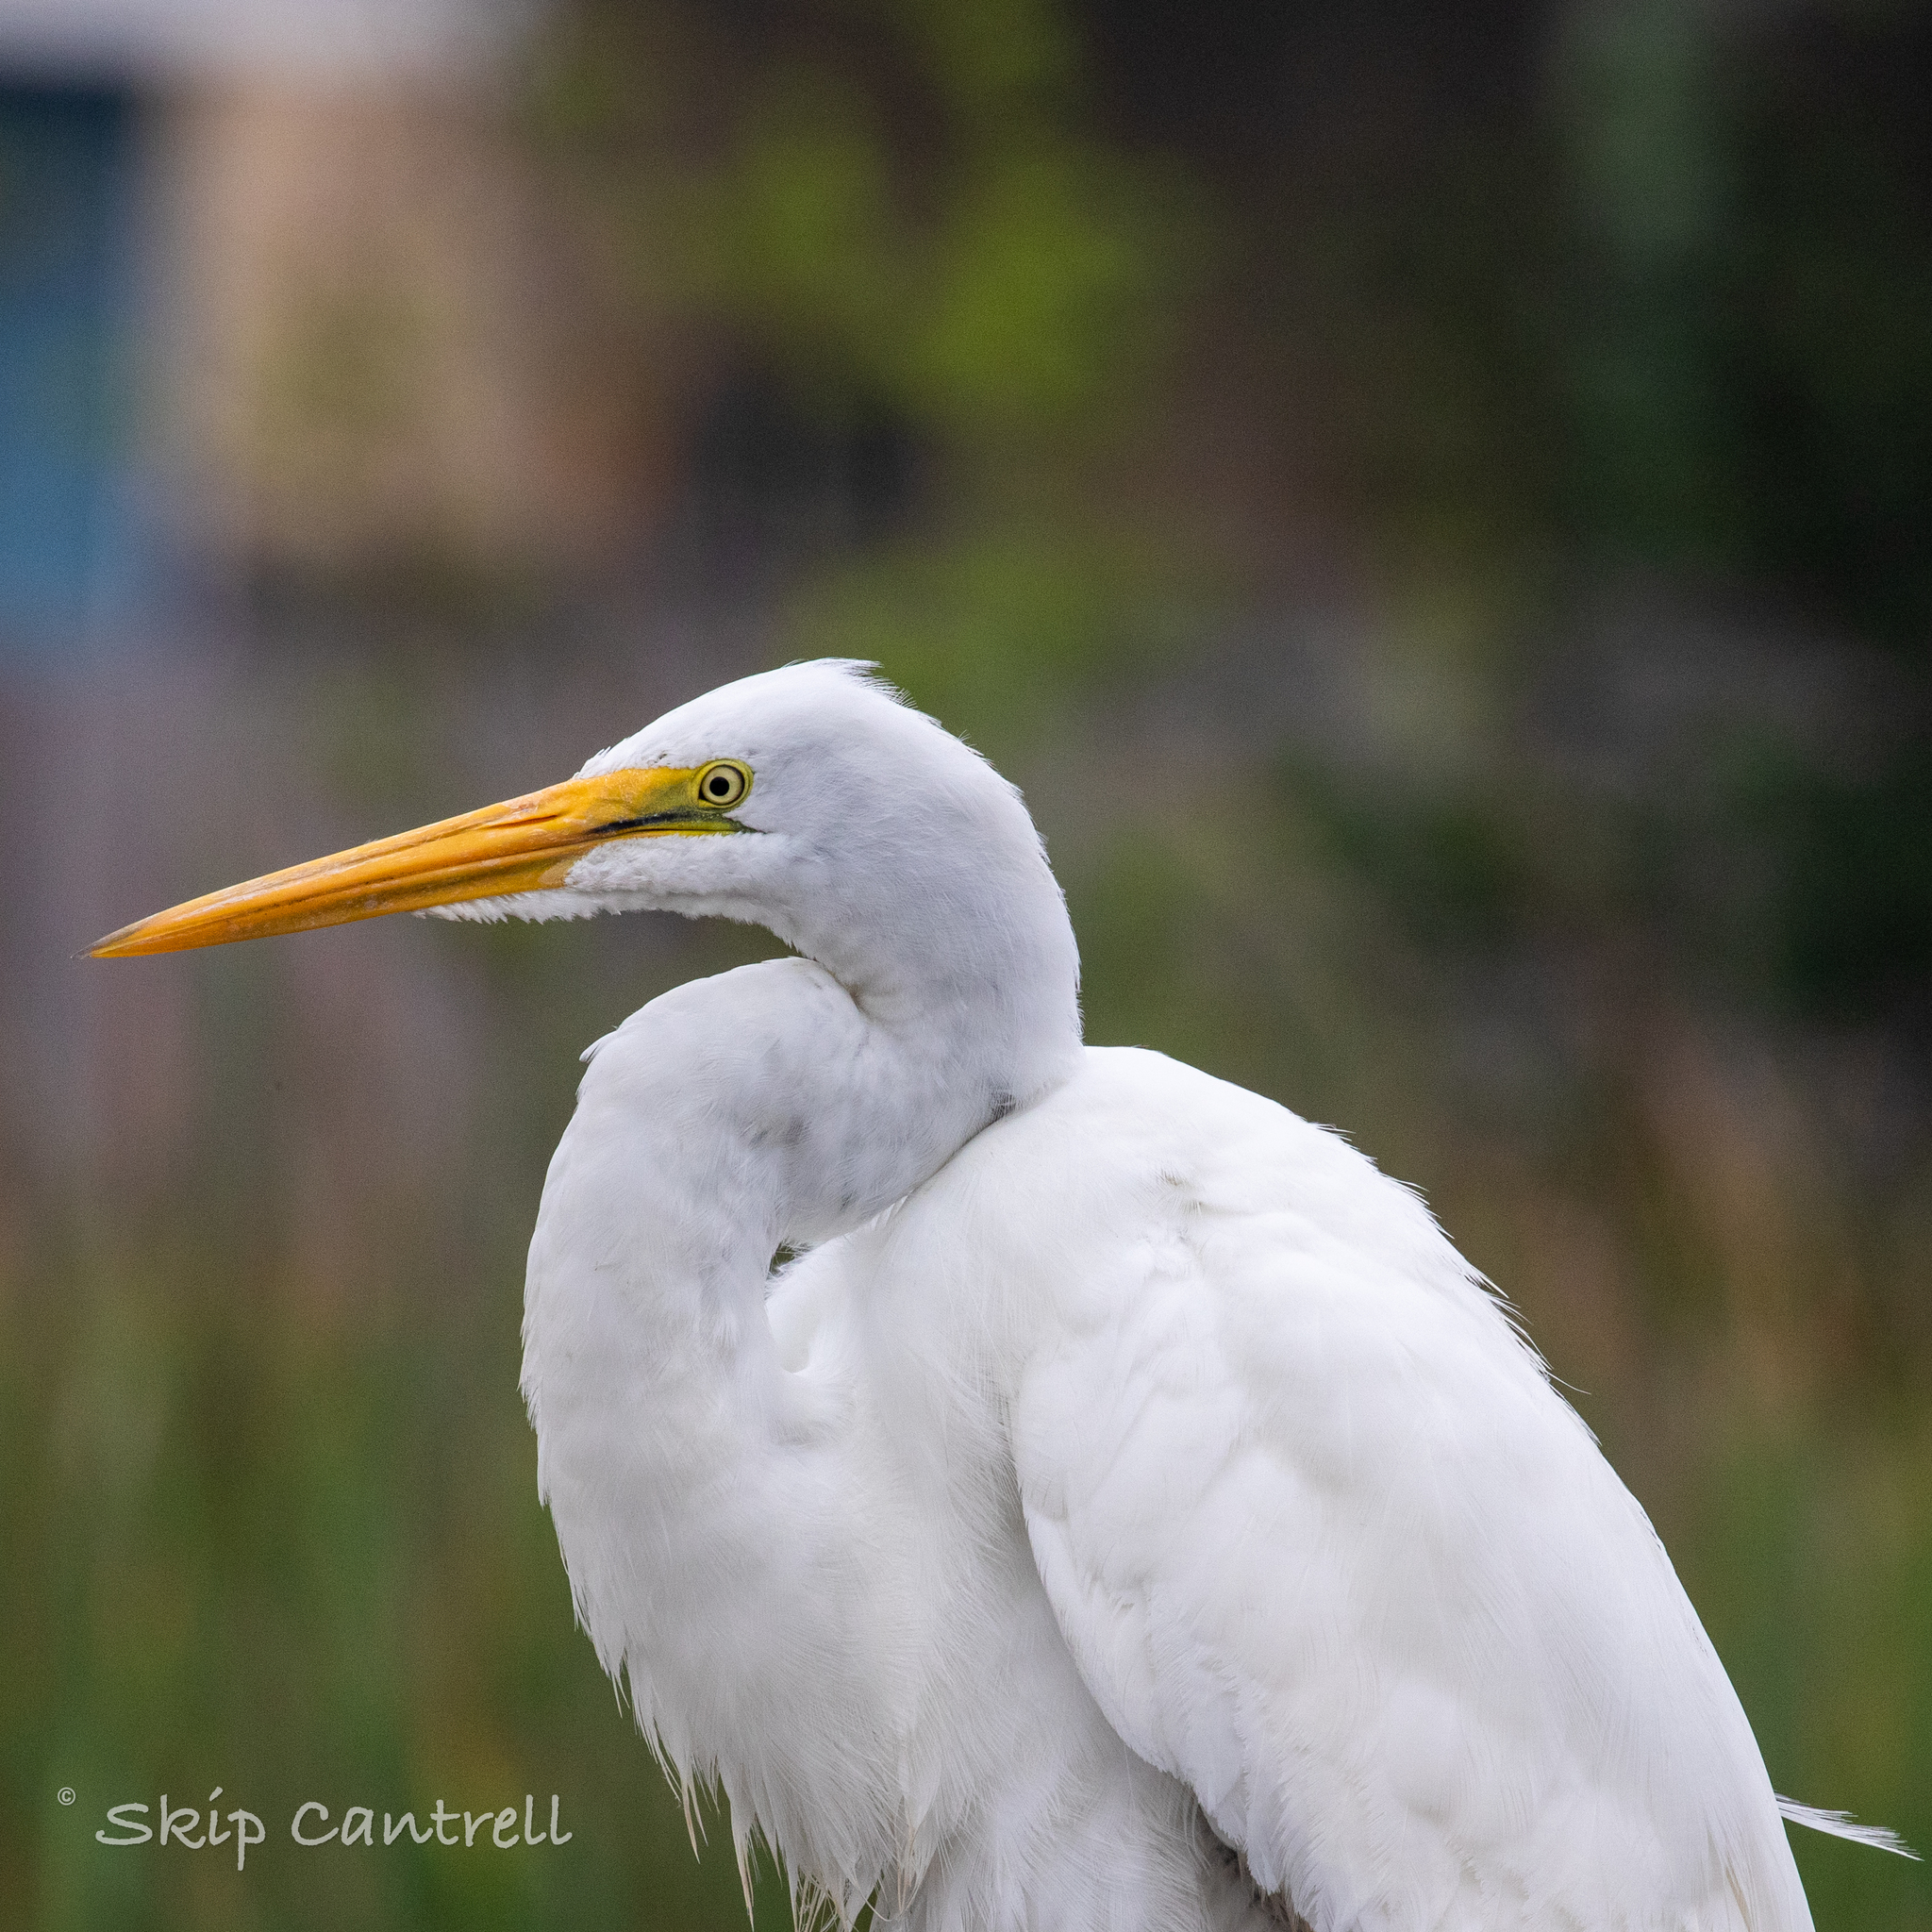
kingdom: Animalia
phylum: Chordata
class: Aves
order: Pelecaniformes
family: Ardeidae
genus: Ardea
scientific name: Ardea alba
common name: Great egret
